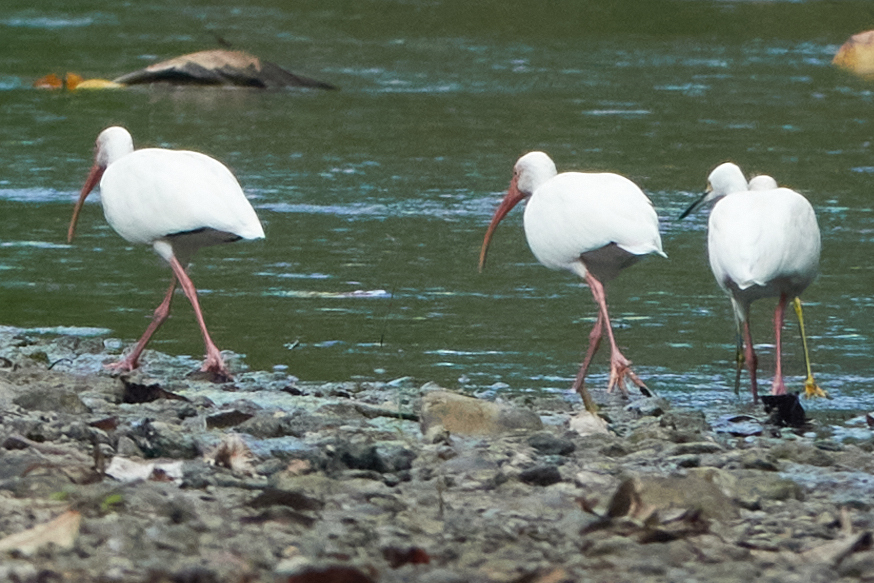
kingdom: Animalia
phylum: Chordata
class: Aves
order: Pelecaniformes
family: Threskiornithidae
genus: Eudocimus
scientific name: Eudocimus albus
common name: White ibis
